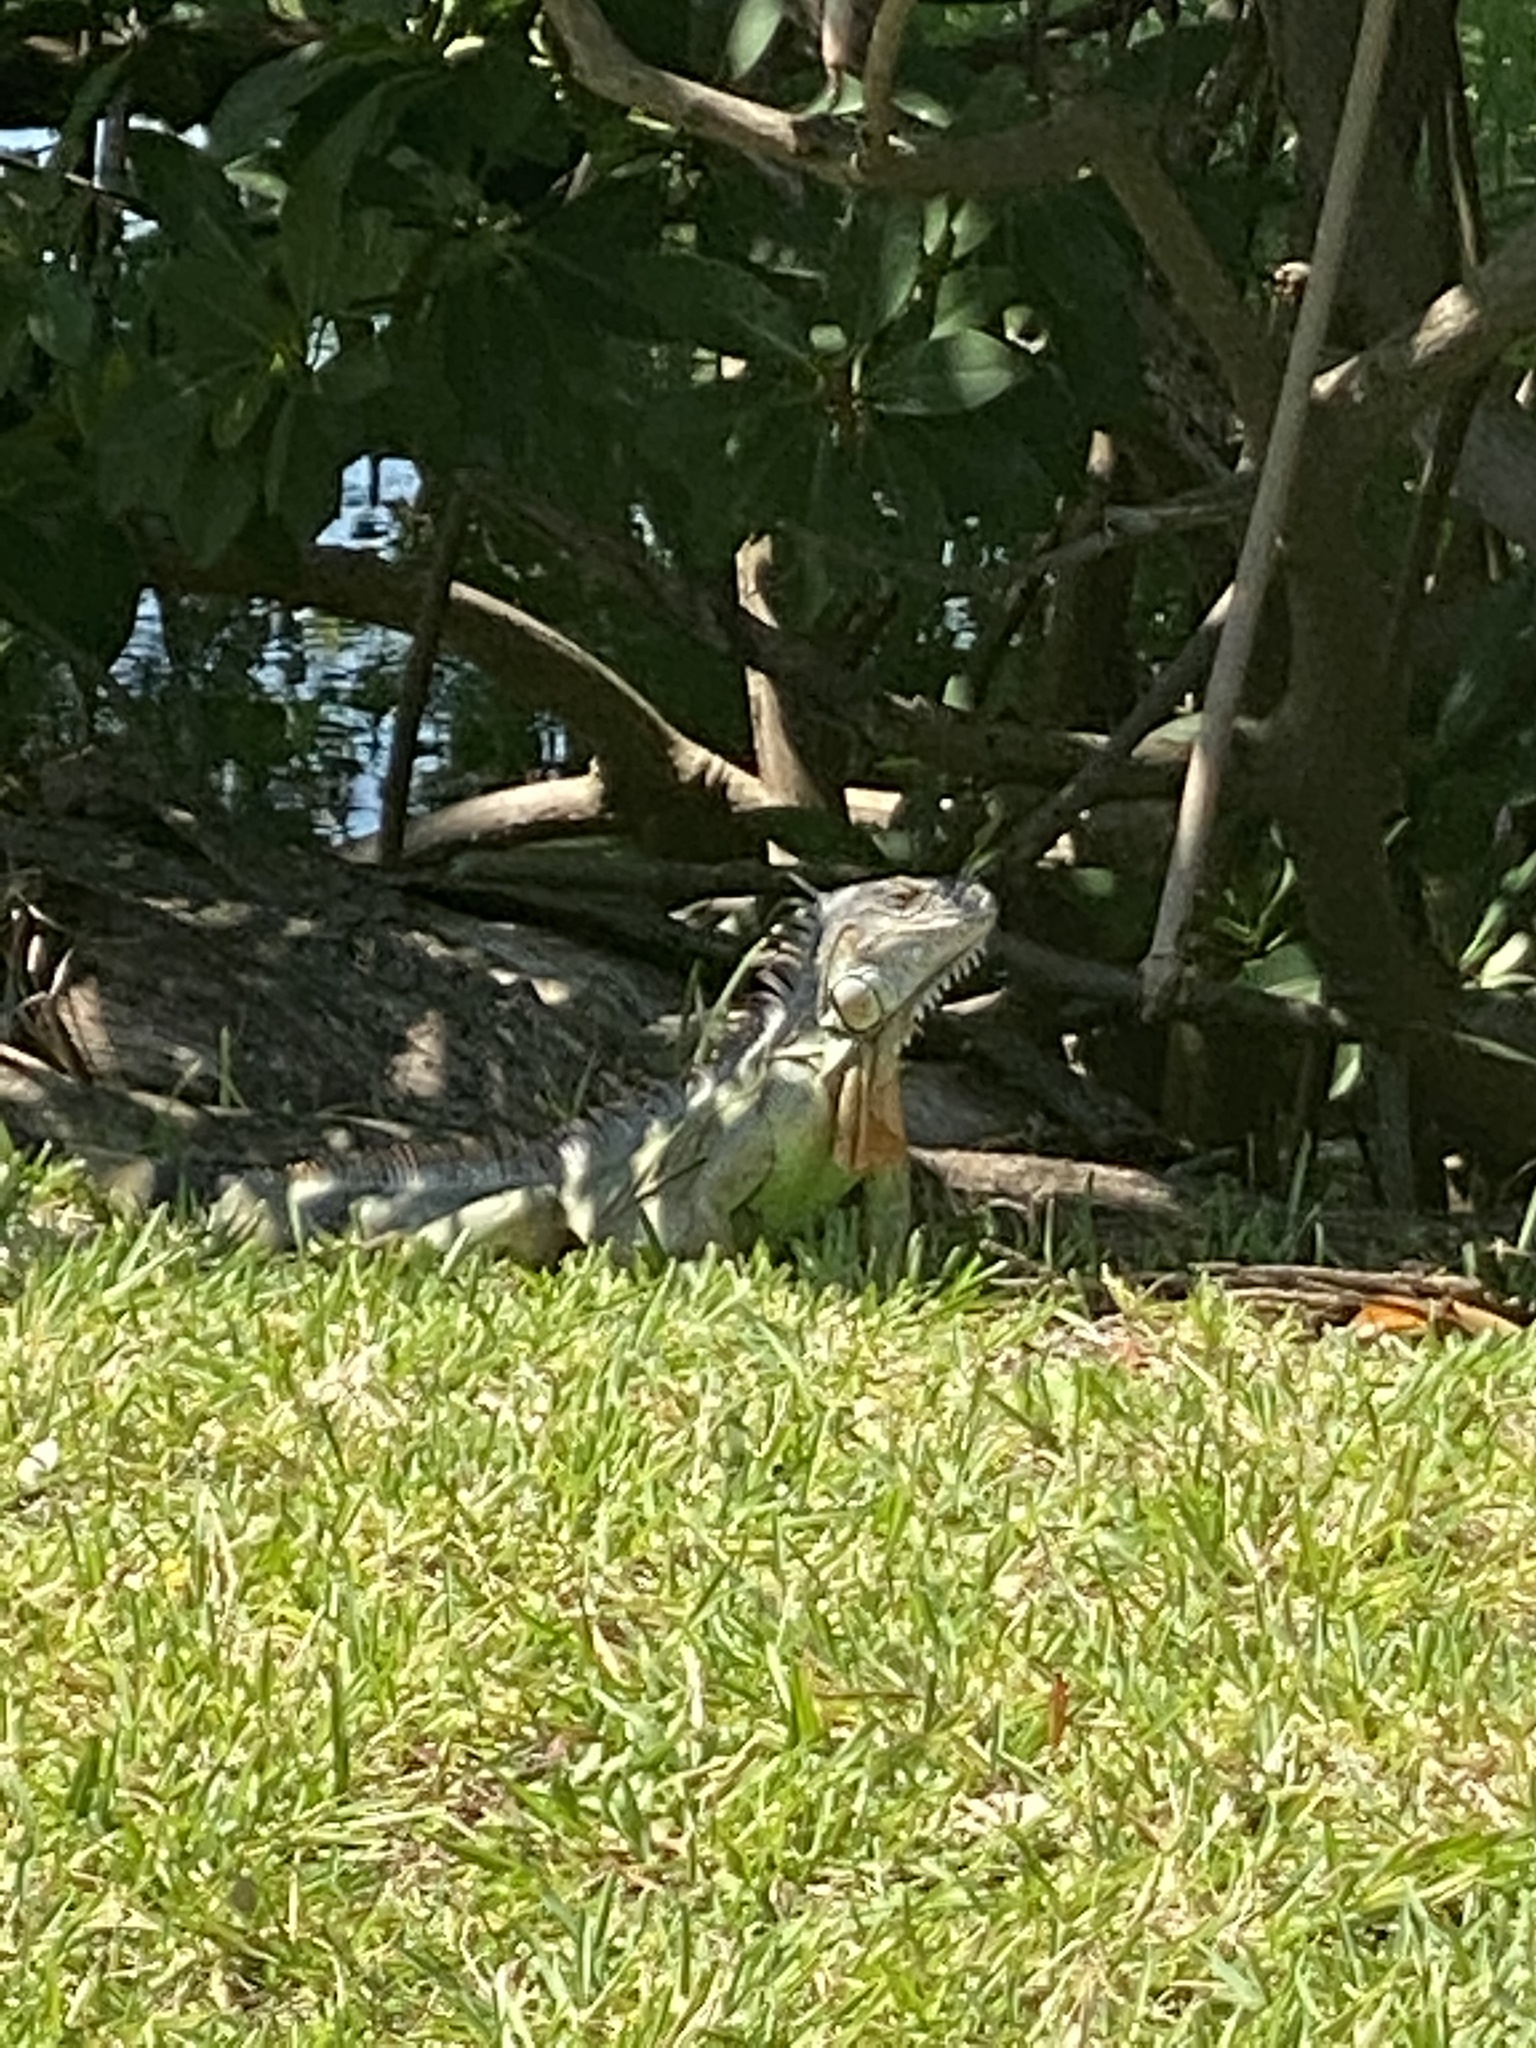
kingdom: Animalia
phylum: Chordata
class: Squamata
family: Iguanidae
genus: Iguana
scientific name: Iguana iguana
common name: Green iguana
